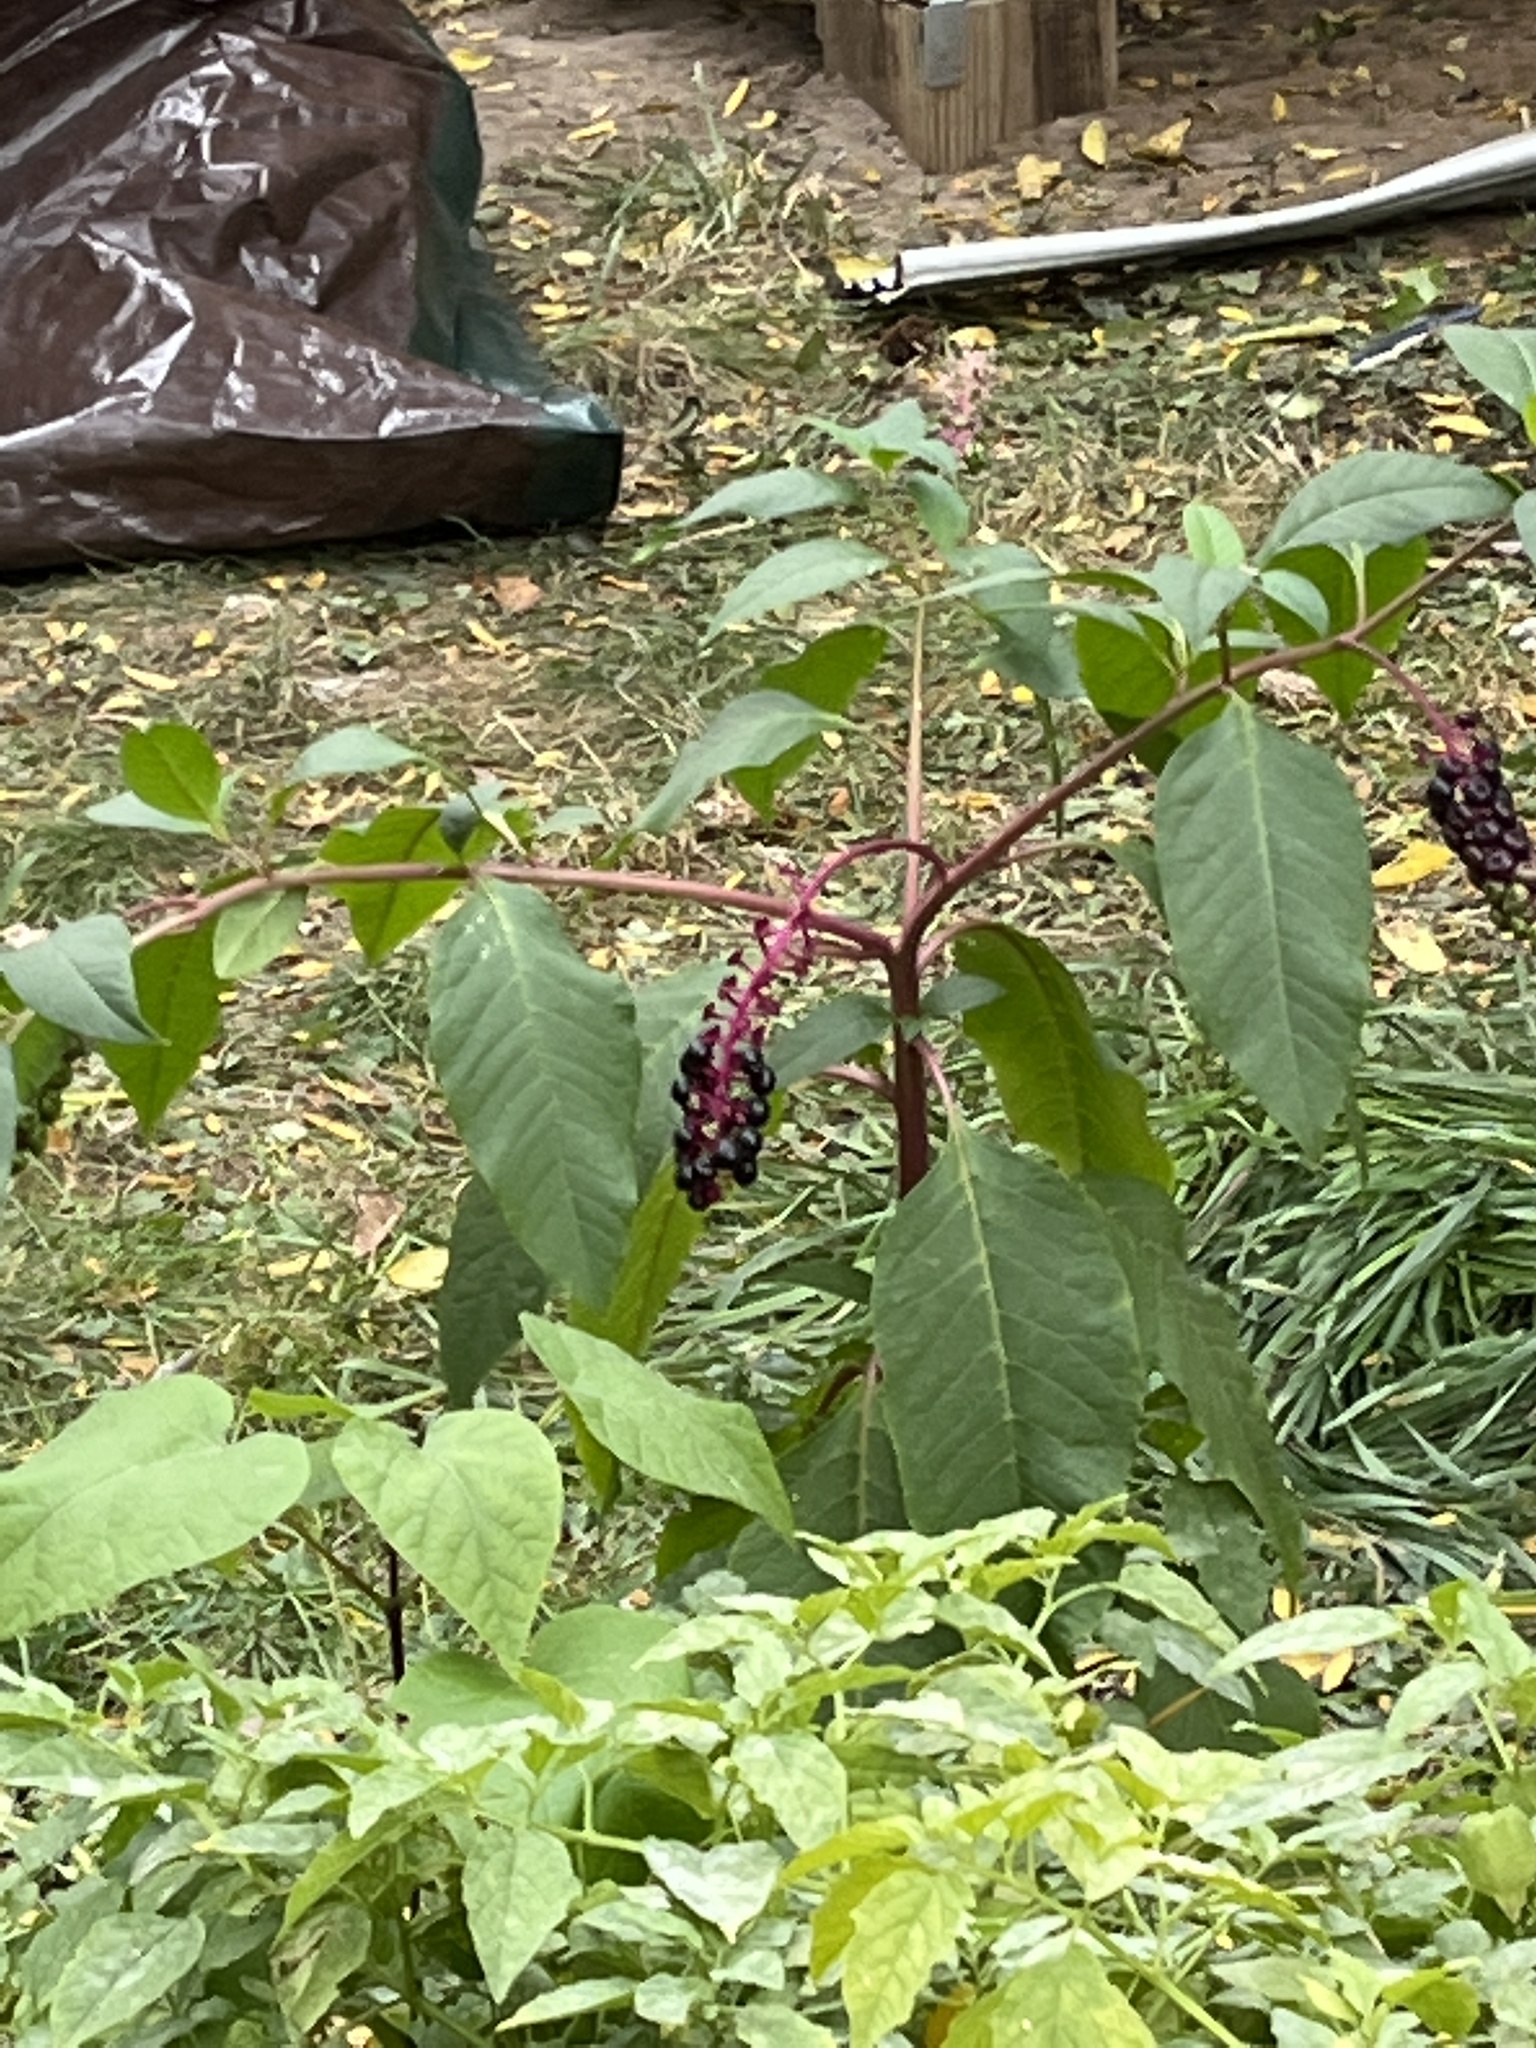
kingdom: Plantae
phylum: Tracheophyta
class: Magnoliopsida
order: Caryophyllales
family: Phytolaccaceae
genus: Phytolacca
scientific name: Phytolacca americana
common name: American pokeweed
